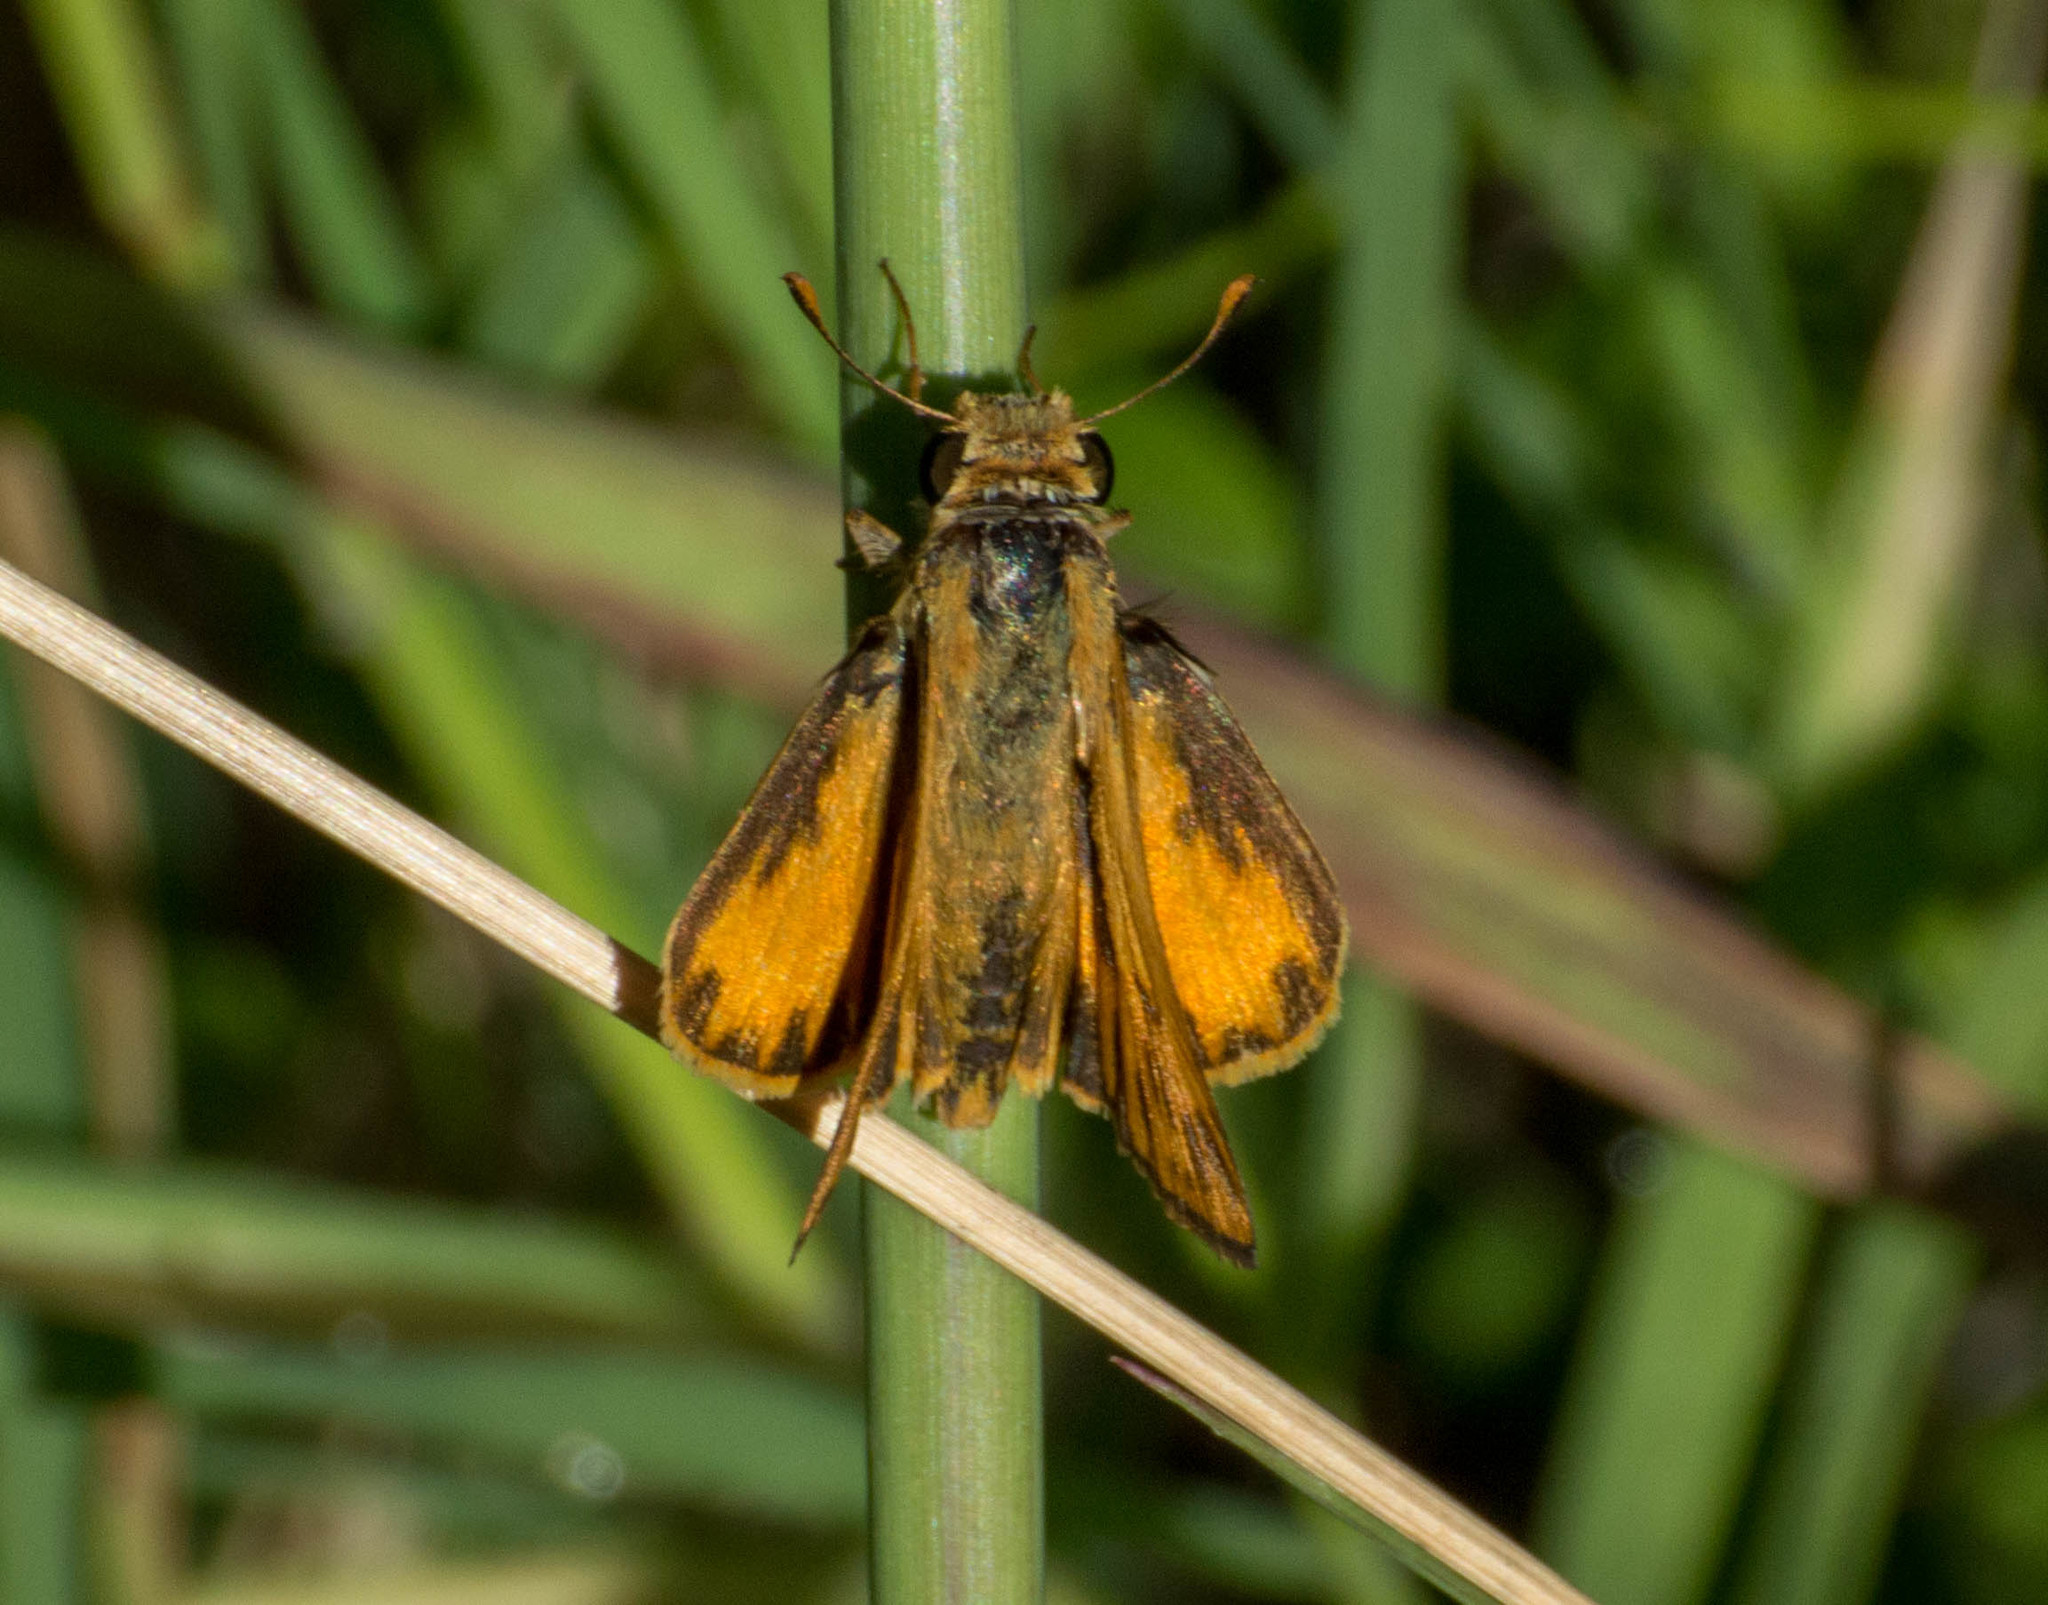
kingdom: Animalia
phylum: Arthropoda
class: Insecta
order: Lepidoptera
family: Hesperiidae
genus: Hylephila
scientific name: Hylephila phyleus
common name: Fiery skipper
